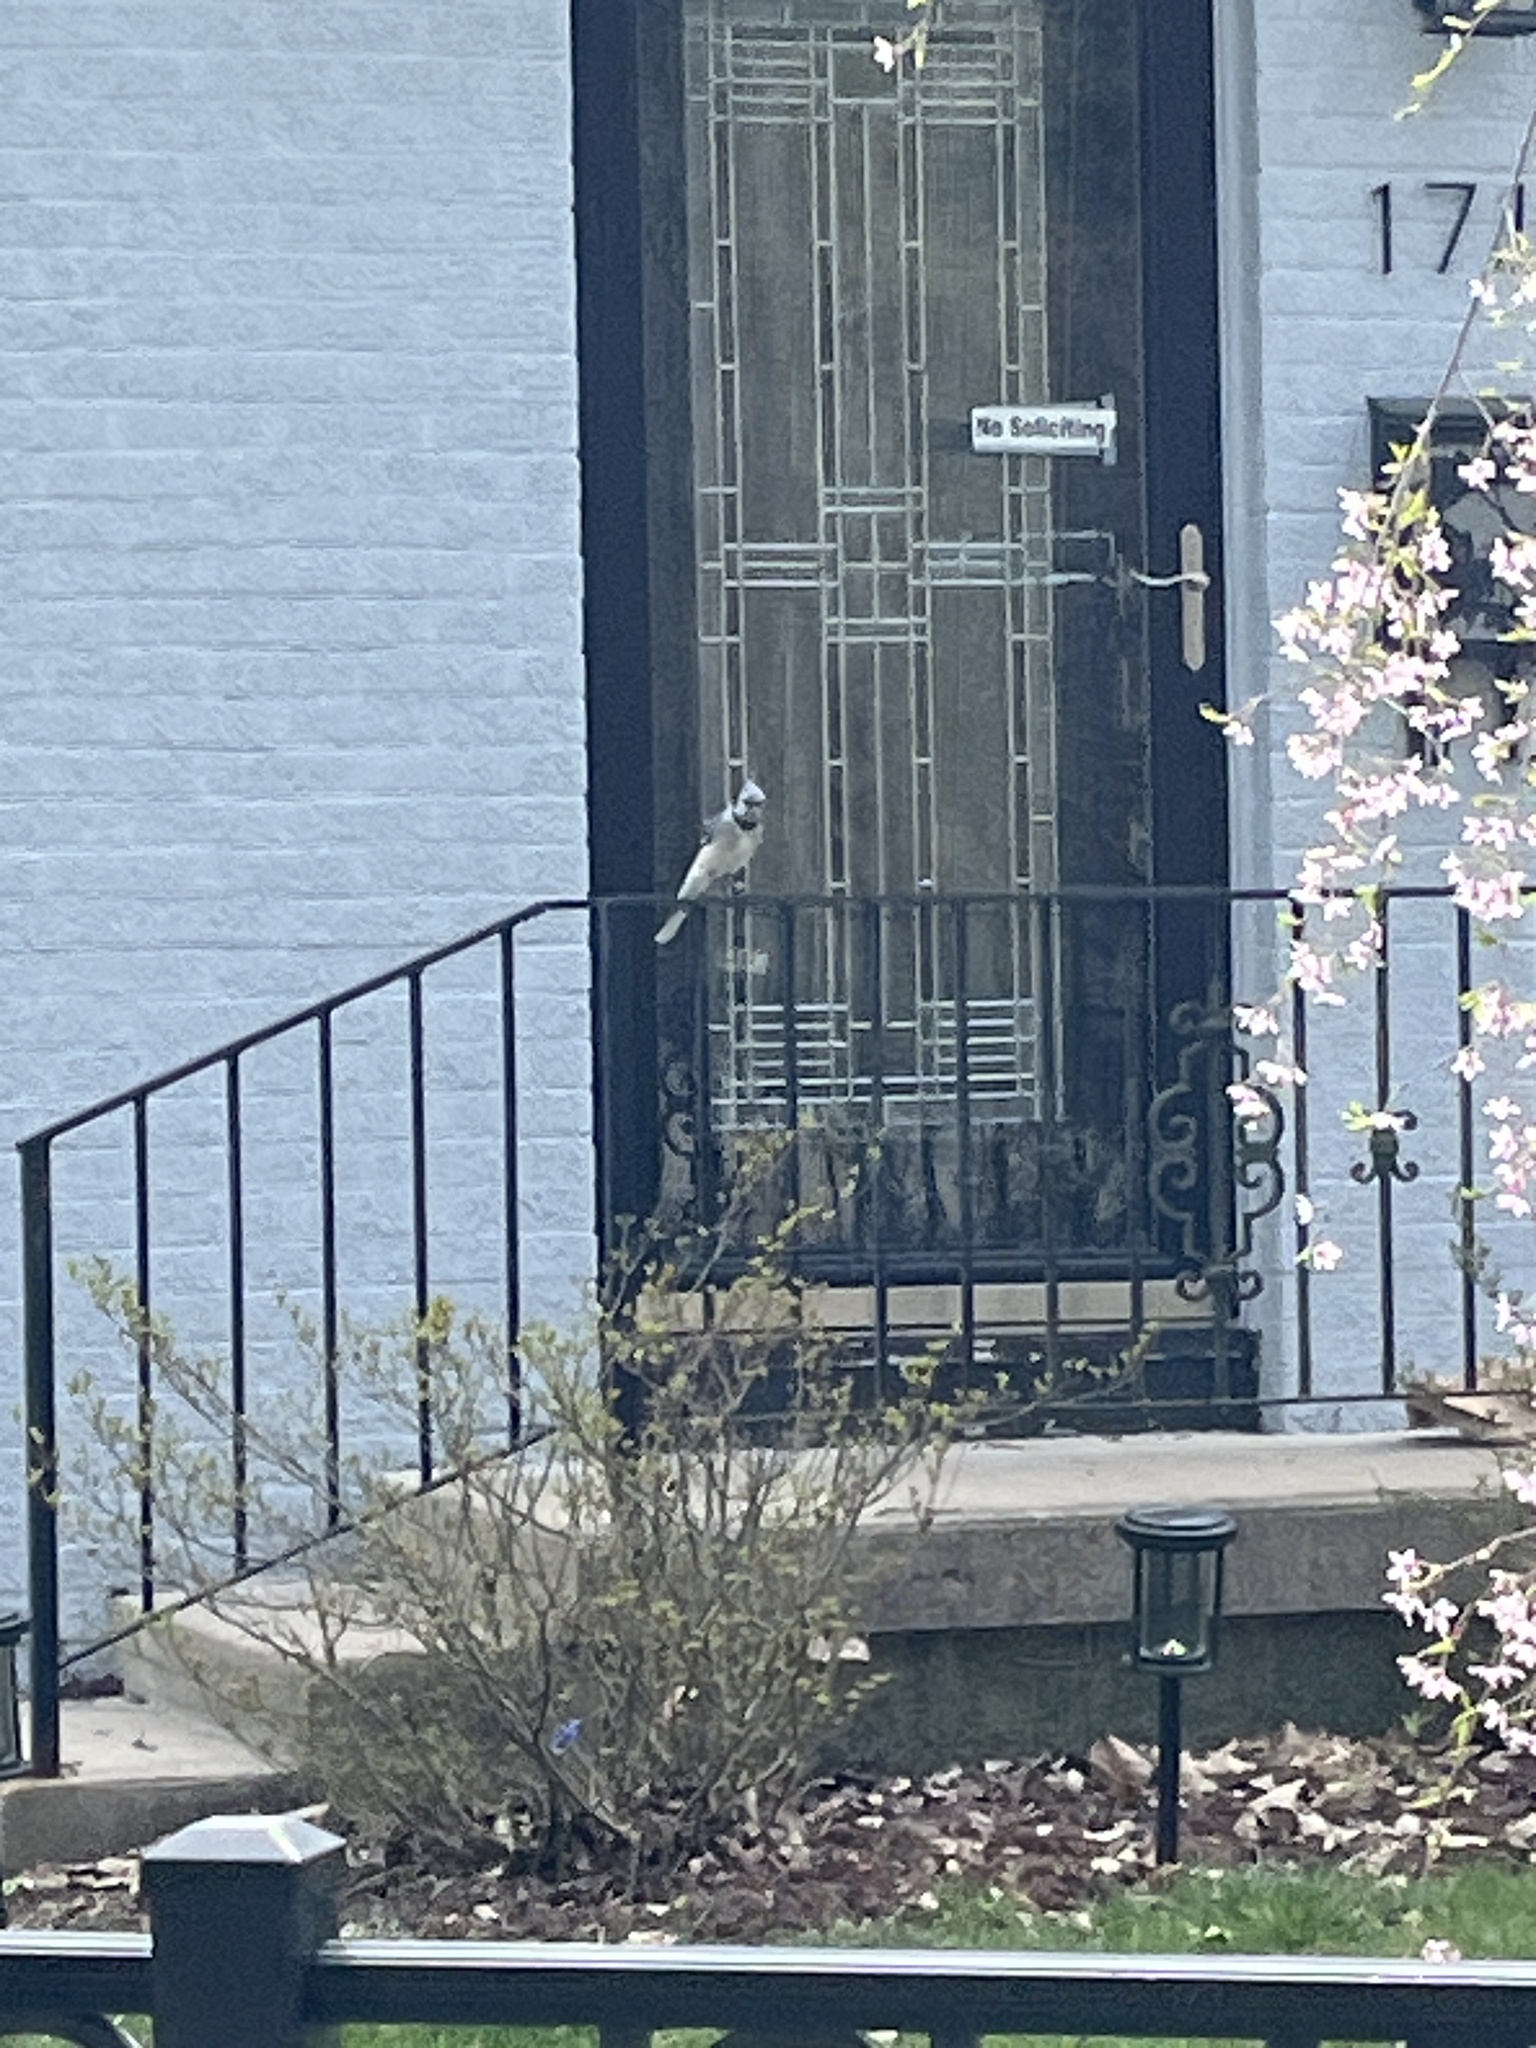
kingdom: Animalia
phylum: Chordata
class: Aves
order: Passeriformes
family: Corvidae
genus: Cyanocitta
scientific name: Cyanocitta cristata
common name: Blue jay
